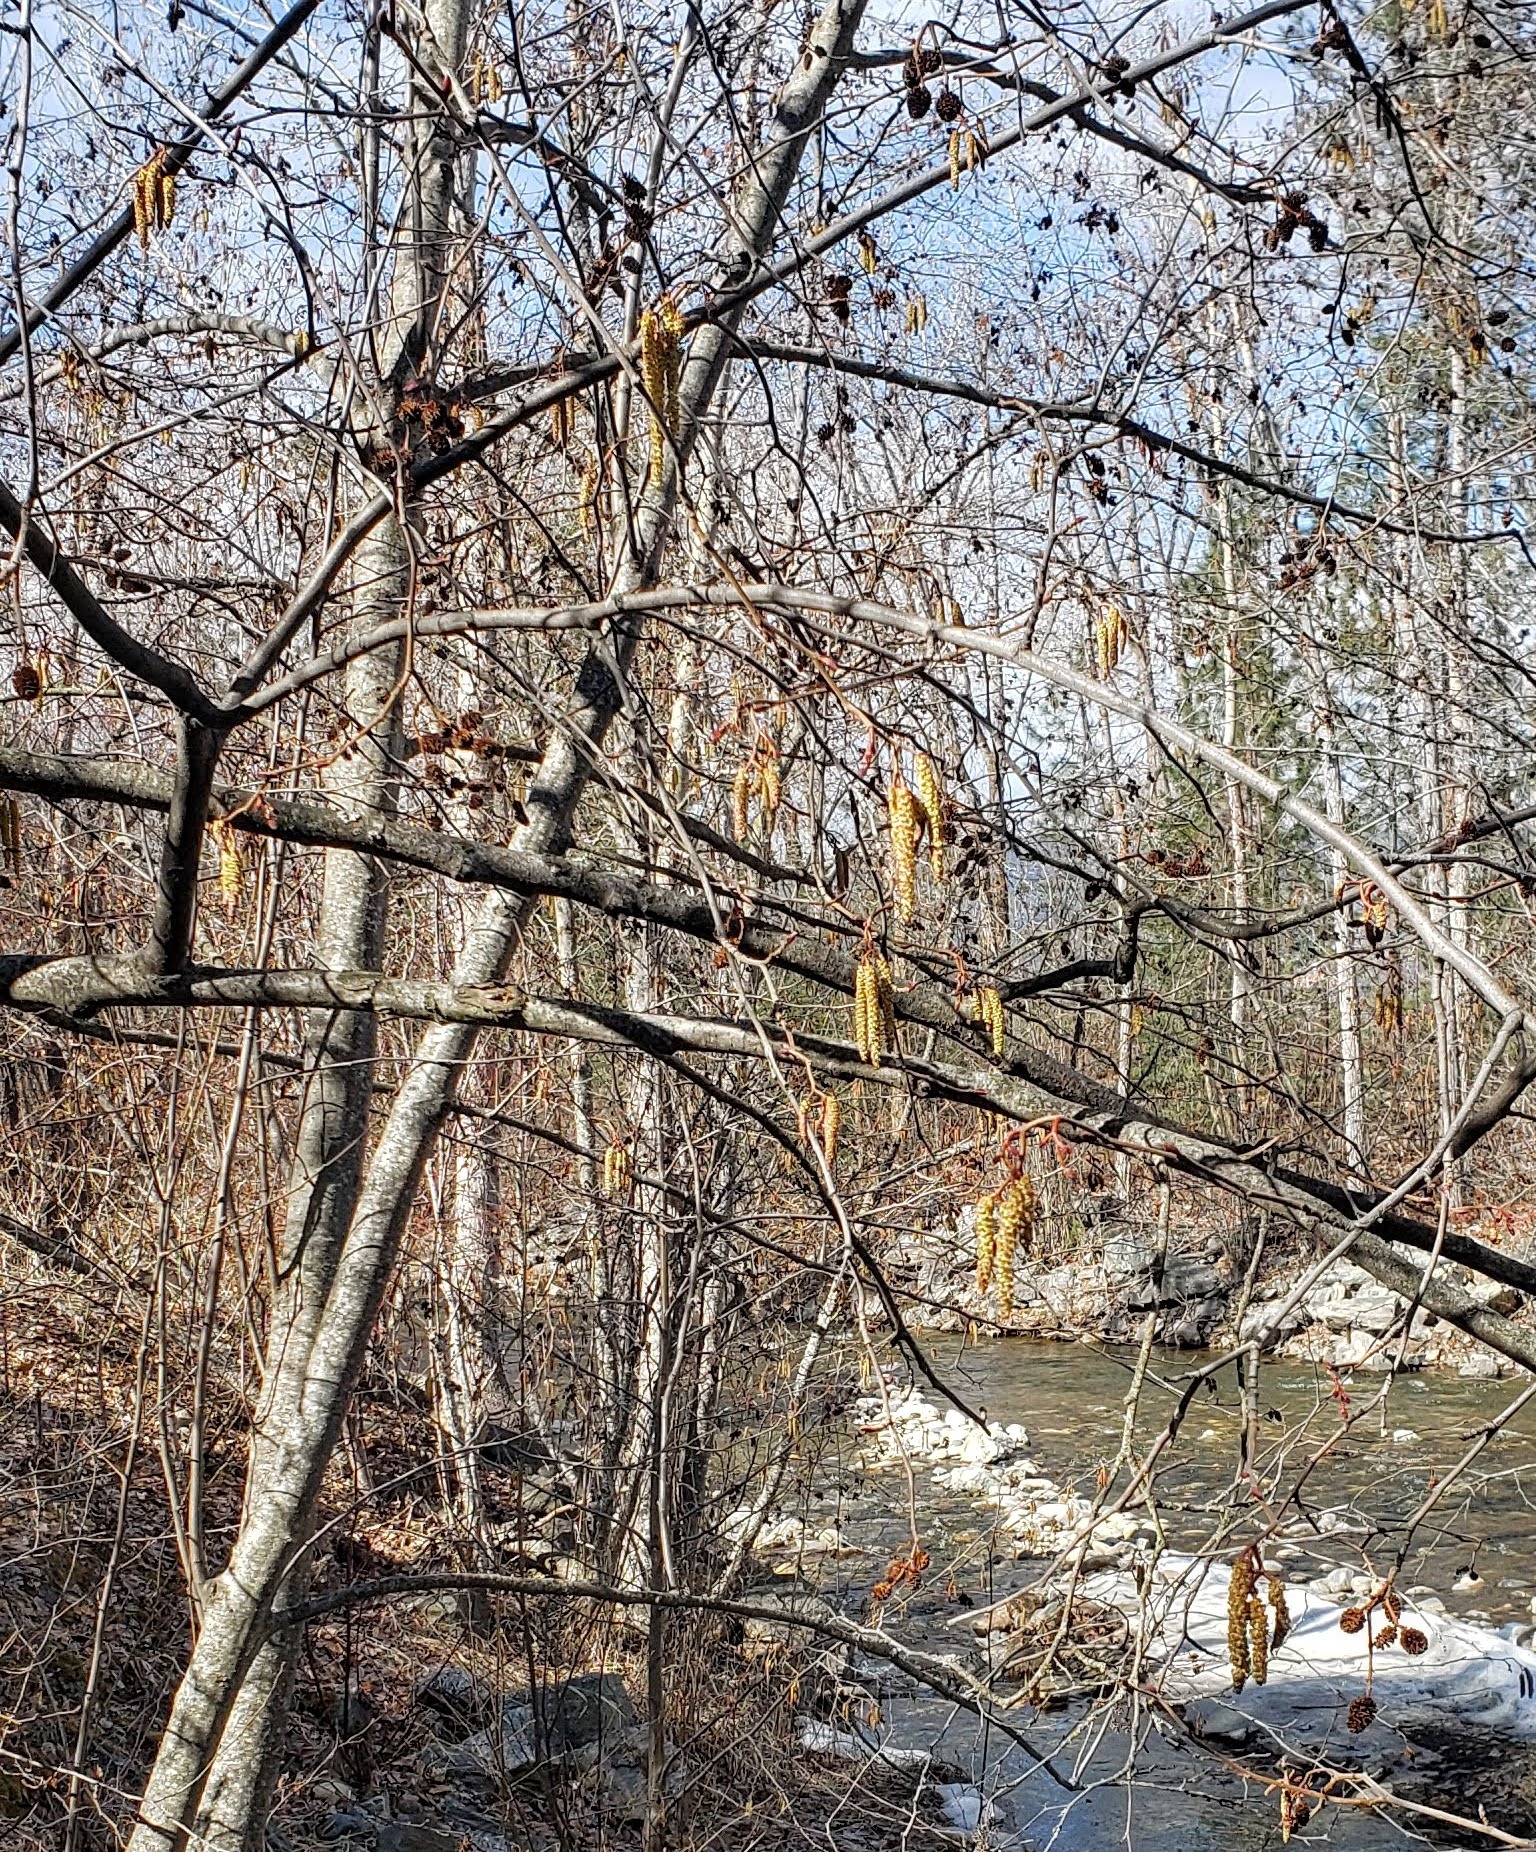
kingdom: Plantae
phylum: Tracheophyta
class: Magnoliopsida
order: Fagales
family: Betulaceae
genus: Alnus
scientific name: Alnus incana
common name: Grey alder
